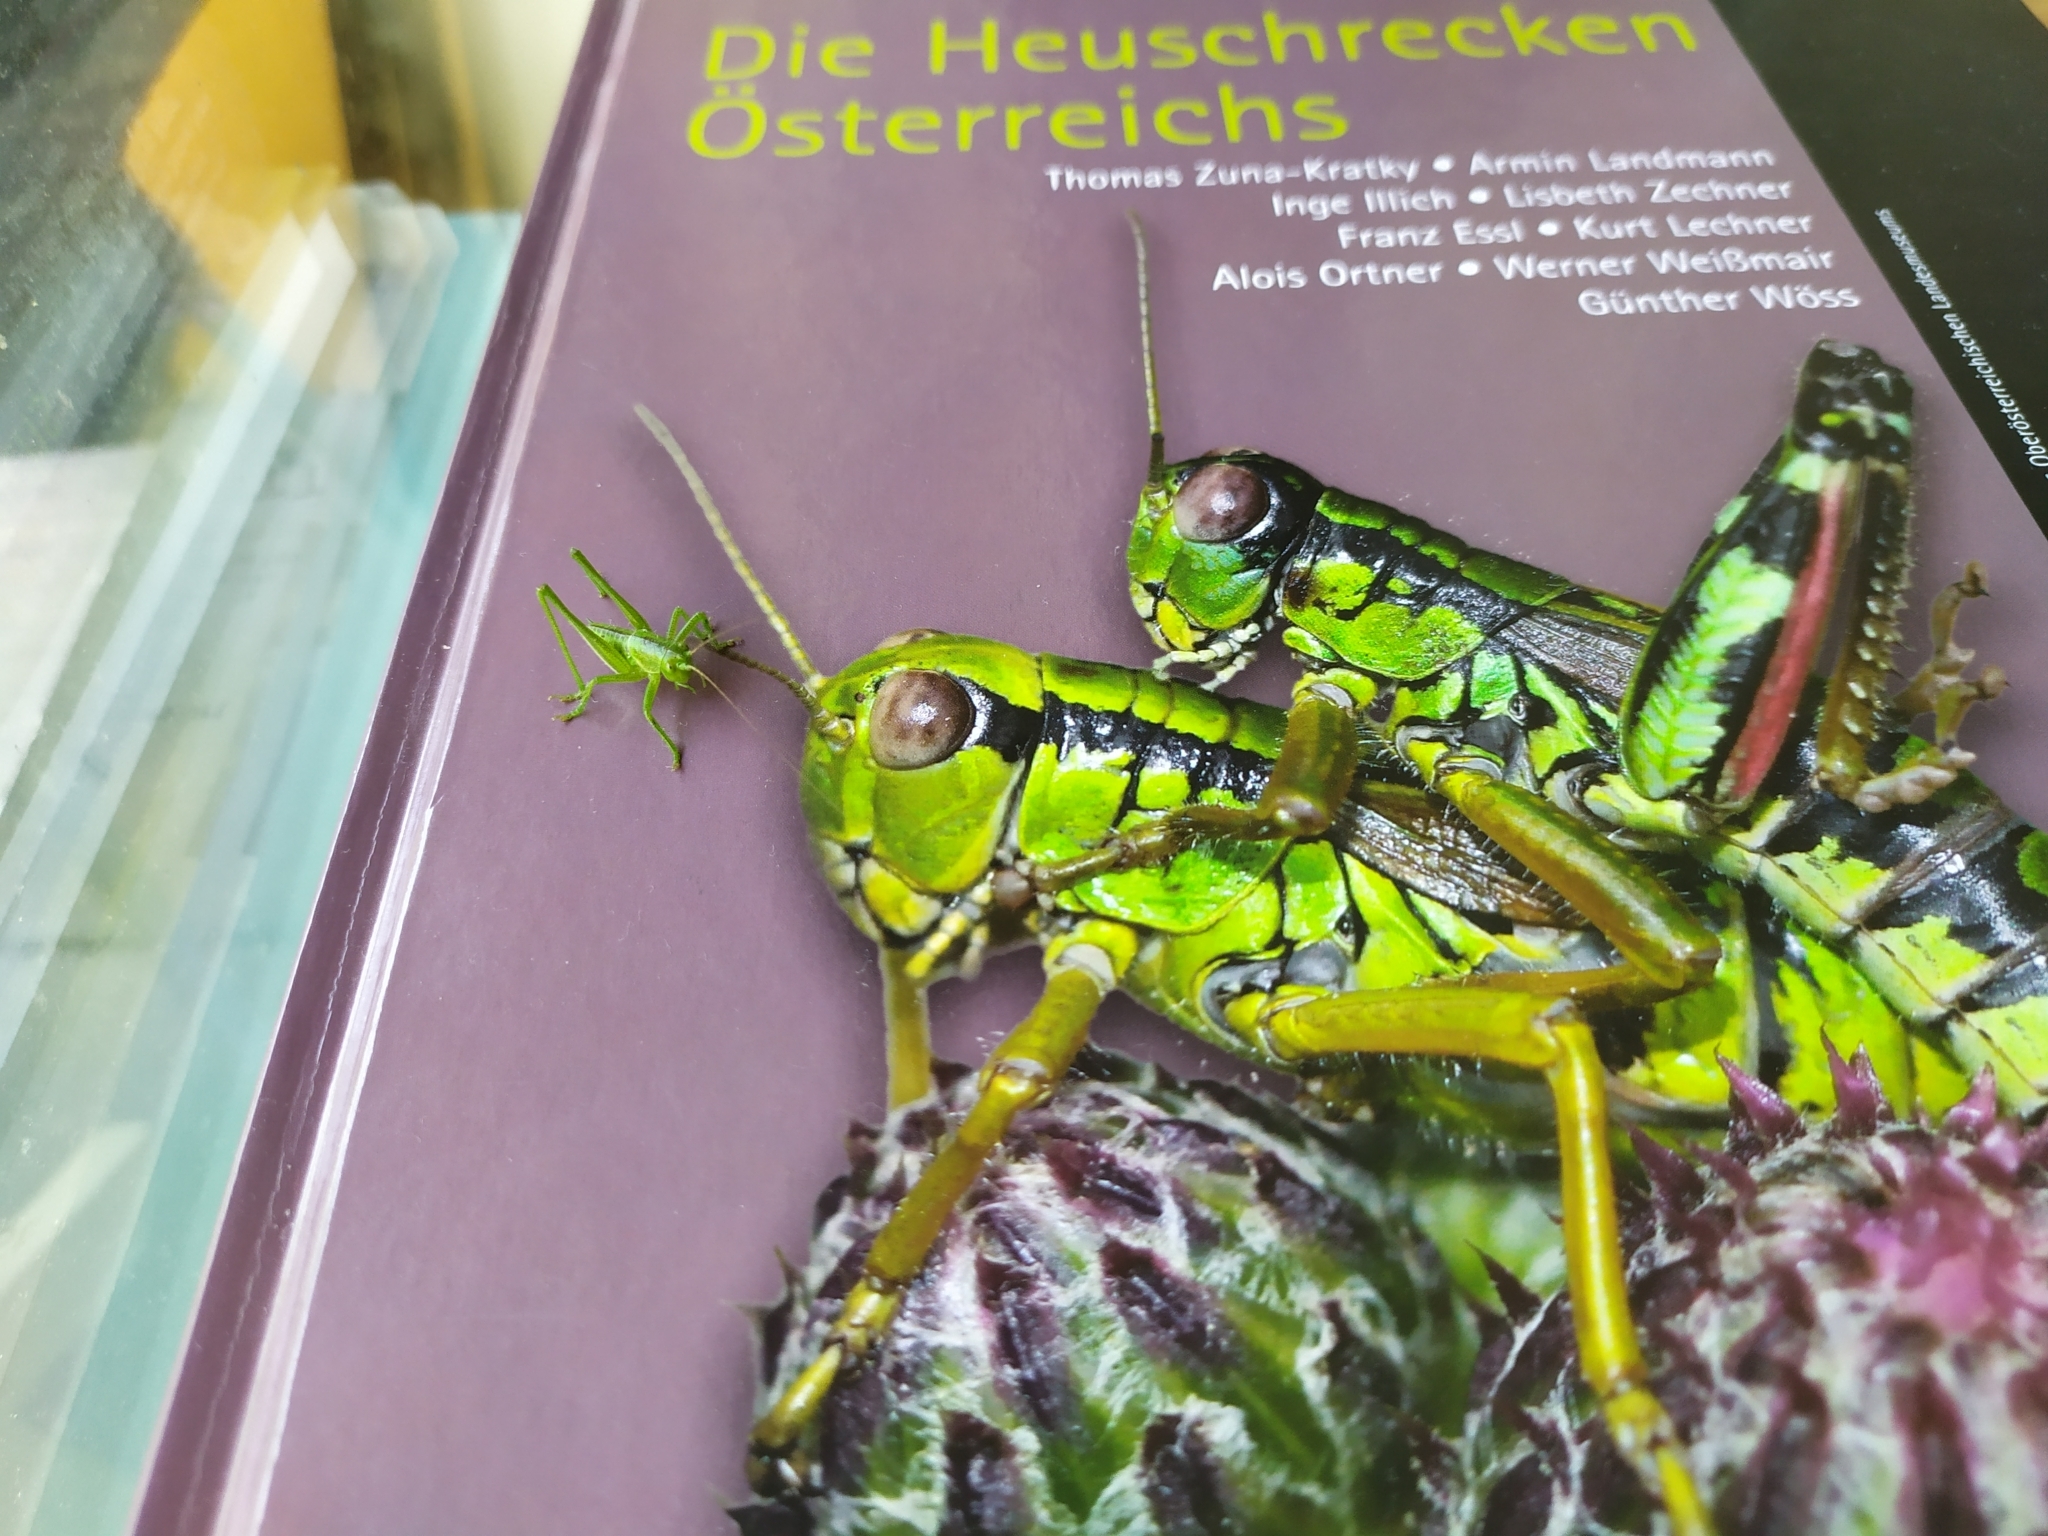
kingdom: Animalia
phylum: Arthropoda
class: Insecta
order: Orthoptera
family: Tettigoniidae
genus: Tettigonia
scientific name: Tettigonia viridissima
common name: Great green bush-cricket
